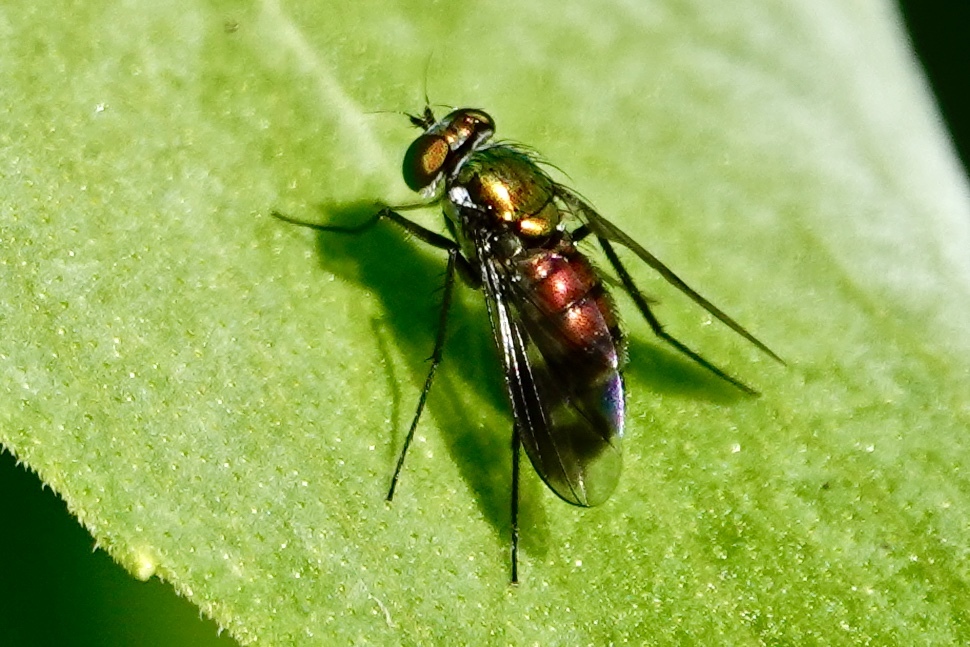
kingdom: Animalia
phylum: Arthropoda
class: Insecta
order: Diptera
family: Dolichopodidae
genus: Condylostylus
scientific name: Condylostylus patibulatus
